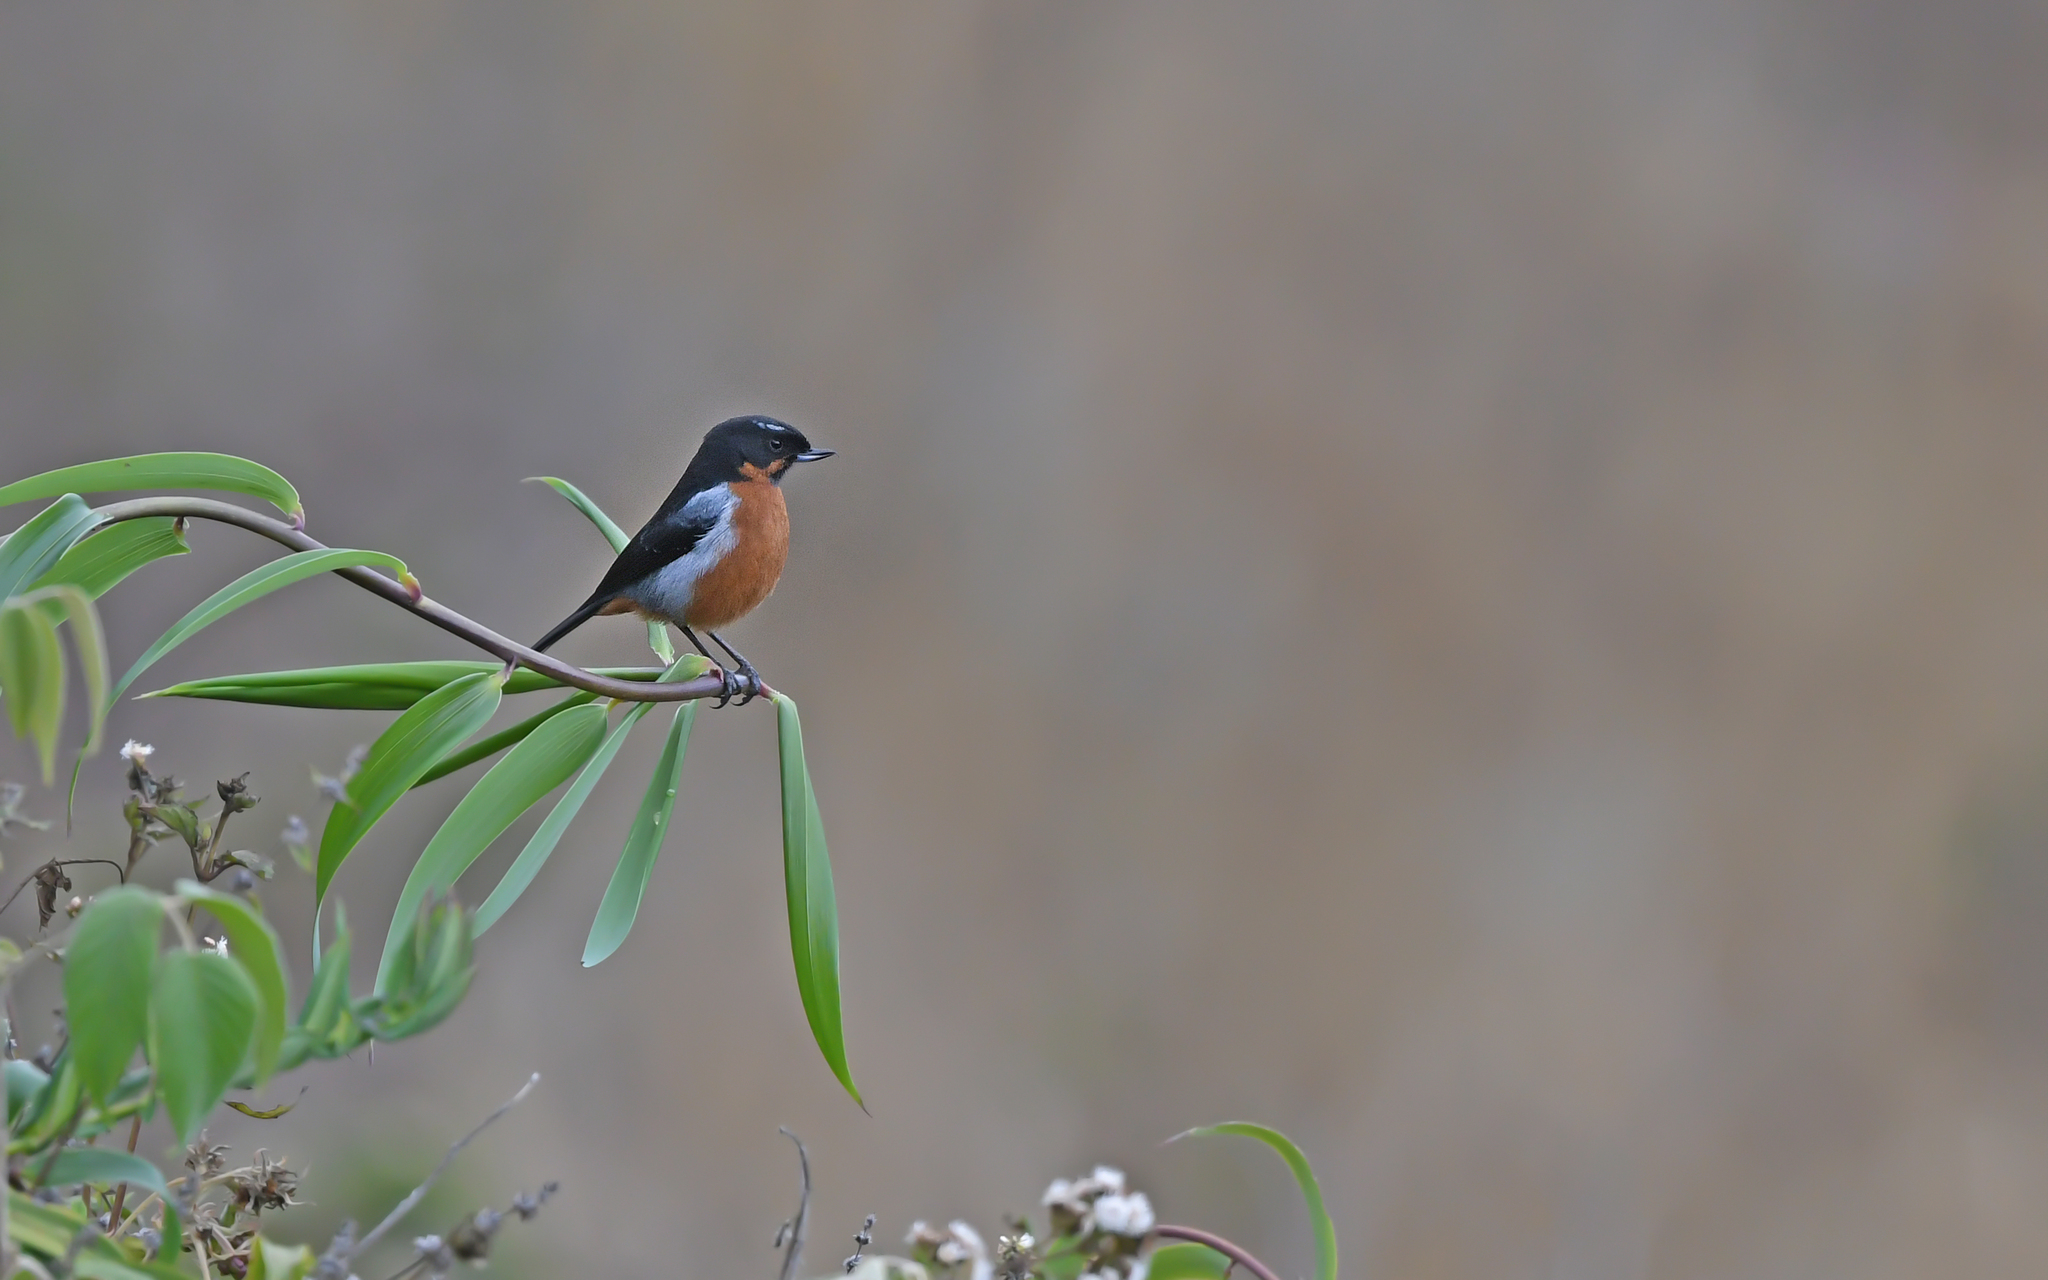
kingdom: Animalia
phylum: Chordata
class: Aves
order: Passeriformes
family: Thraupidae
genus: Diglossa
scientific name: Diglossa brunneiventris
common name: Black-throated flowerpiercer
